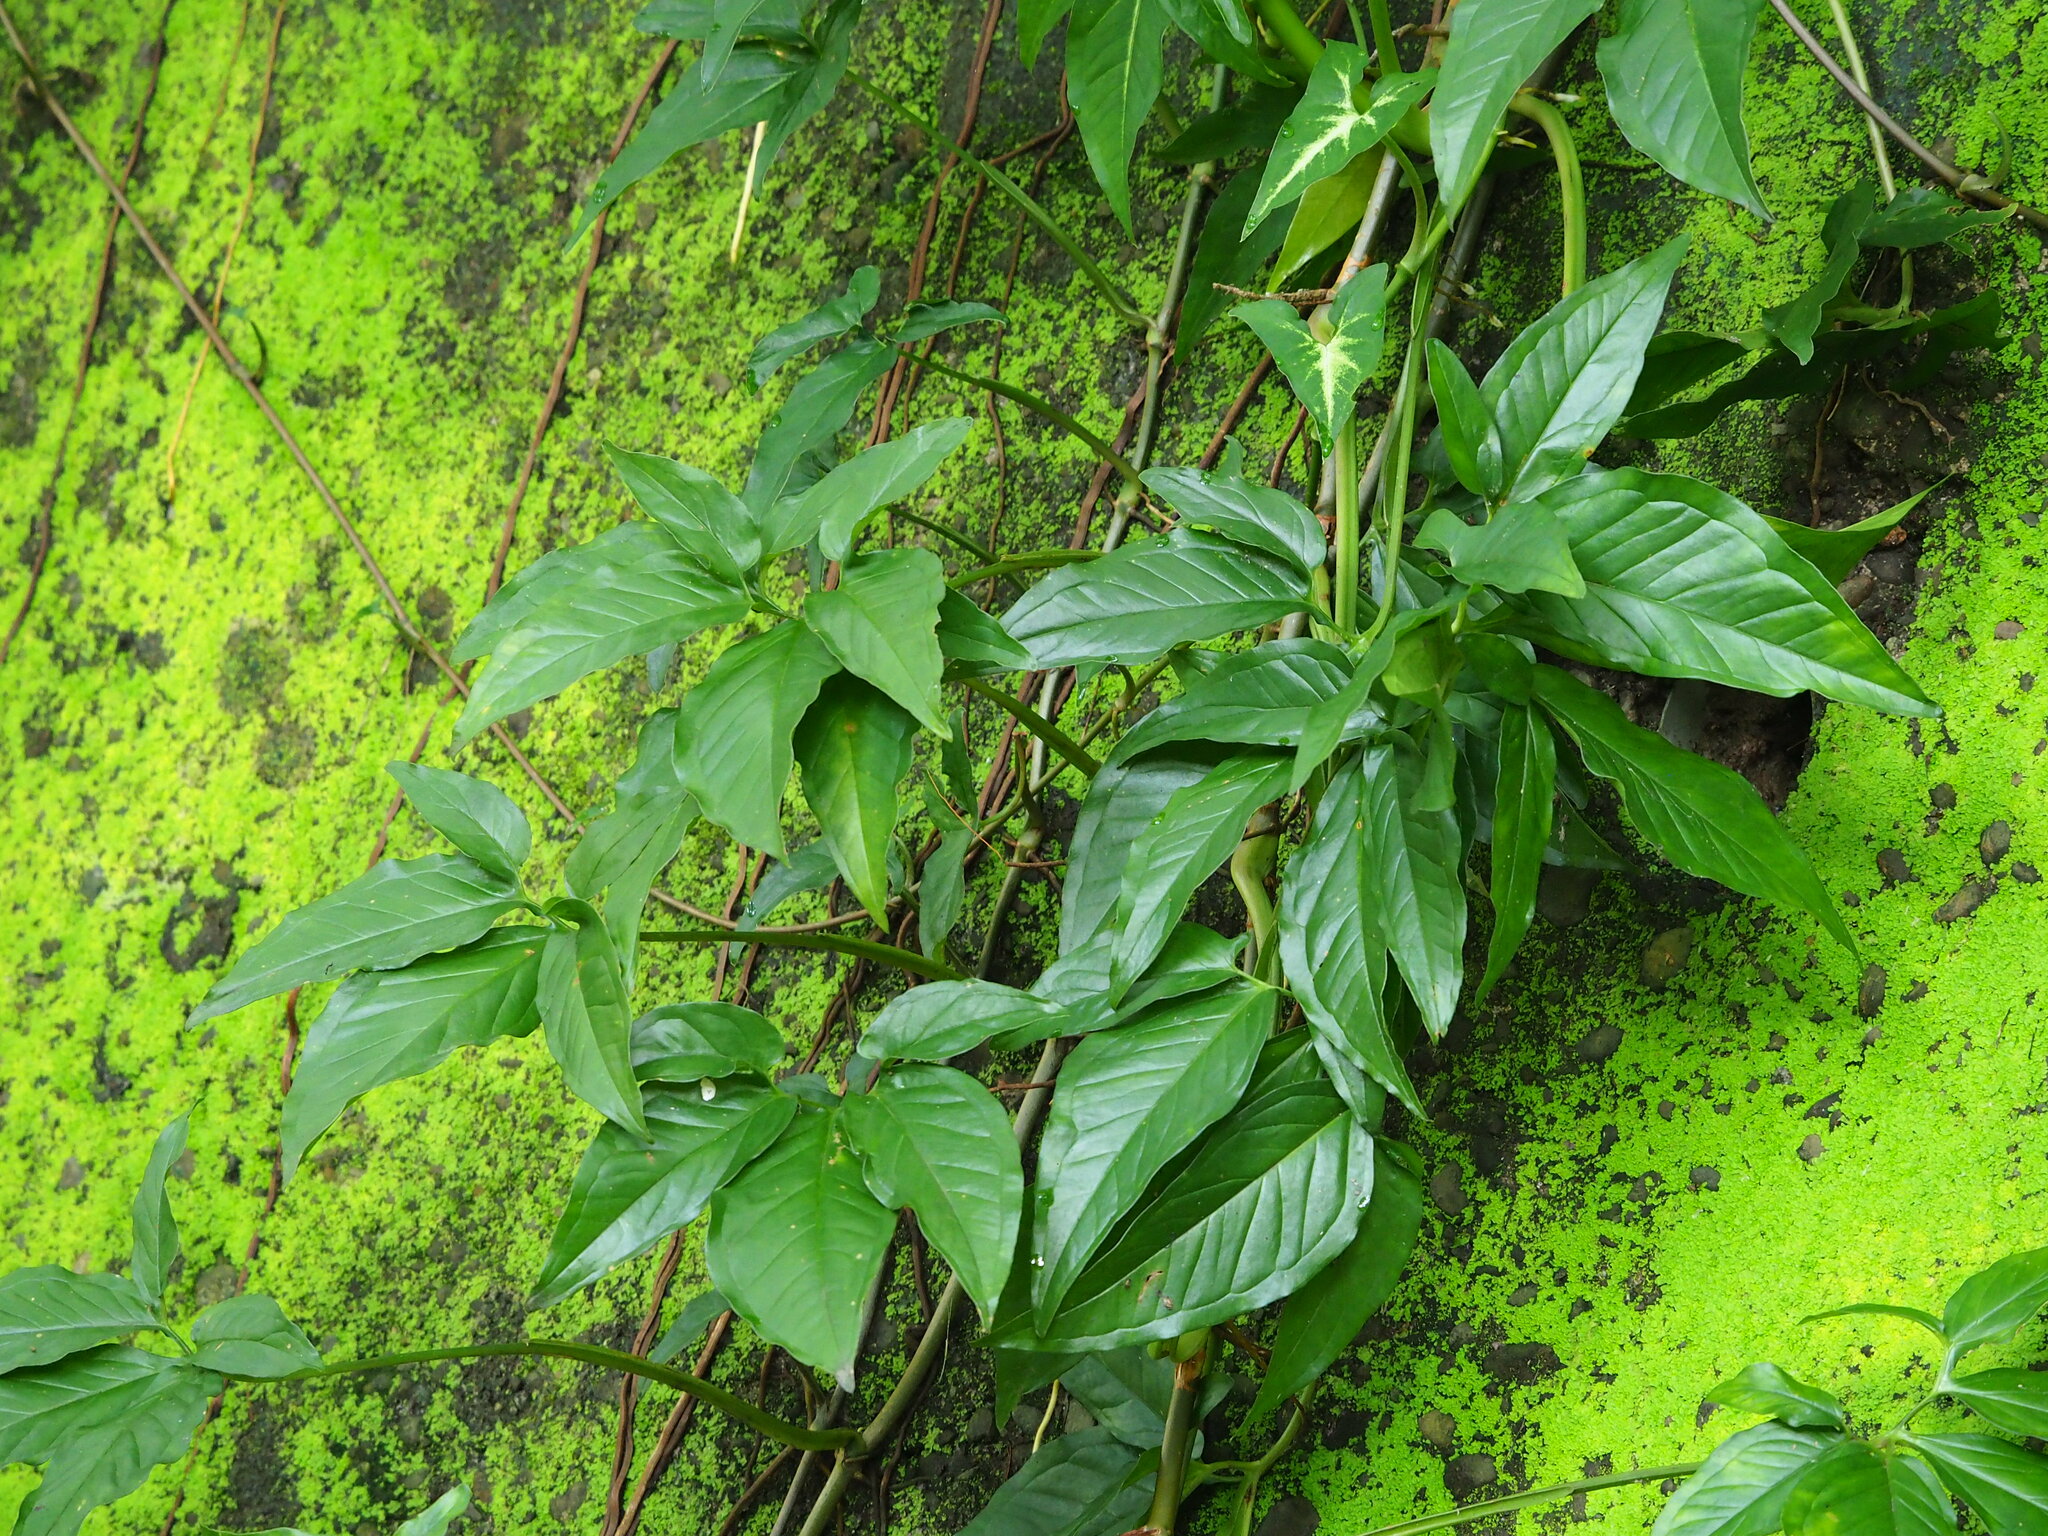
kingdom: Plantae
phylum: Tracheophyta
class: Liliopsida
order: Alismatales
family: Araceae
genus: Syngonium
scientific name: Syngonium angustatum
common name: Fivefingers
